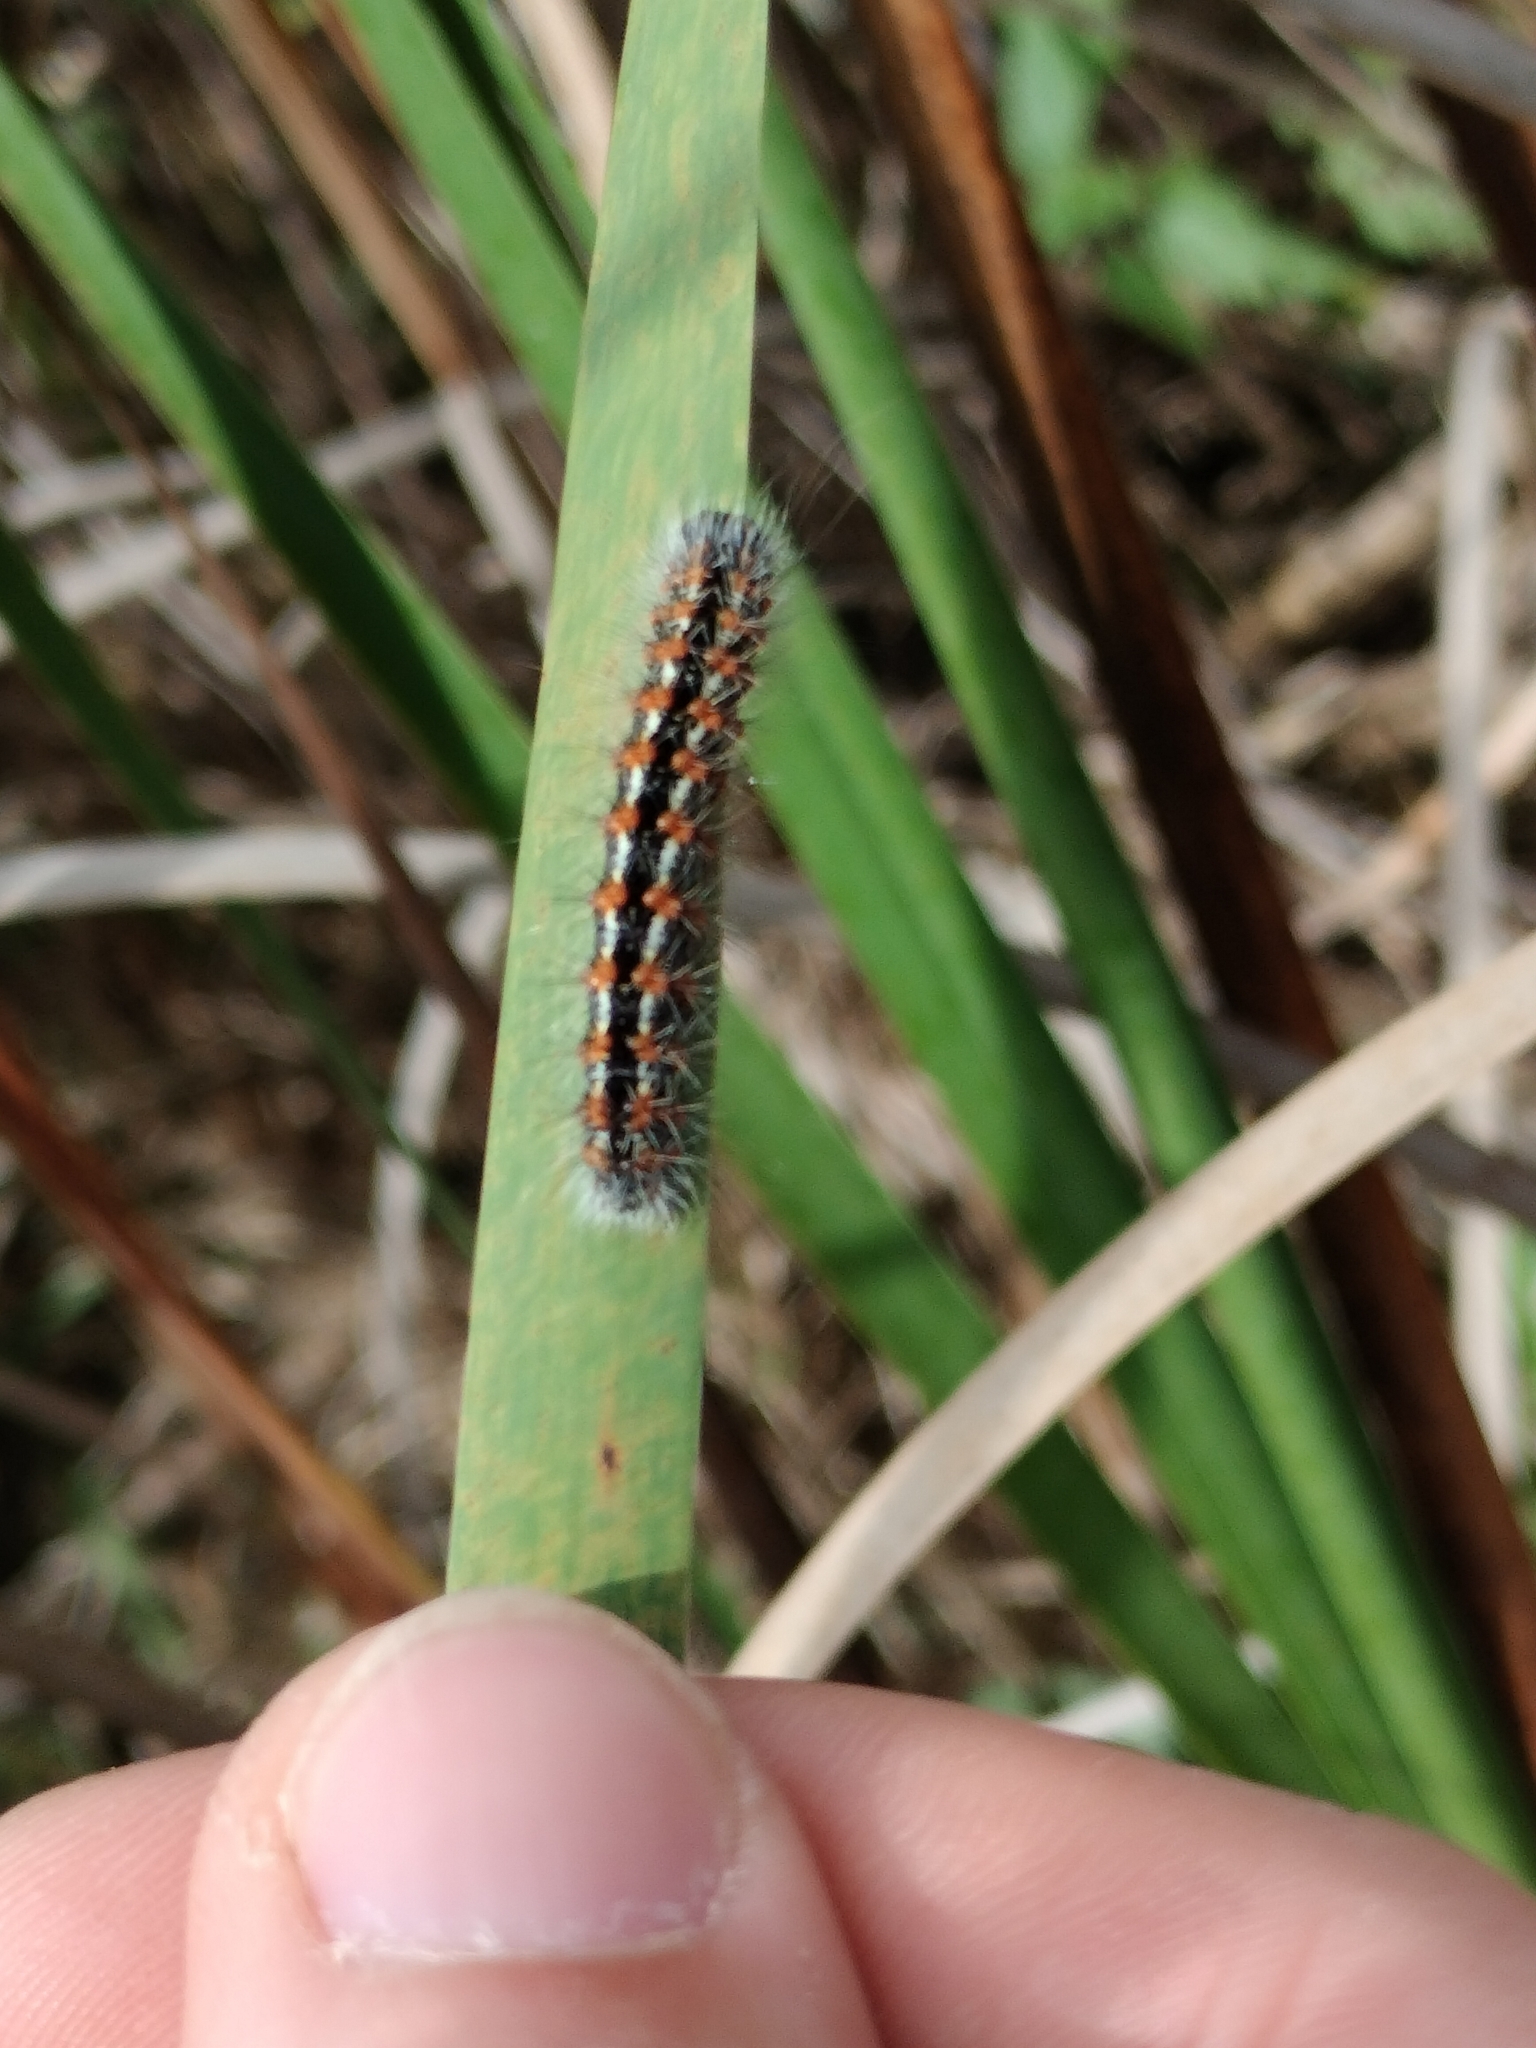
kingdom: Animalia
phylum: Arthropoda
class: Insecta
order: Lepidoptera
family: Noctuidae
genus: Acronicta
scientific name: Acronicta insularis
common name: Henry's marsh moth
